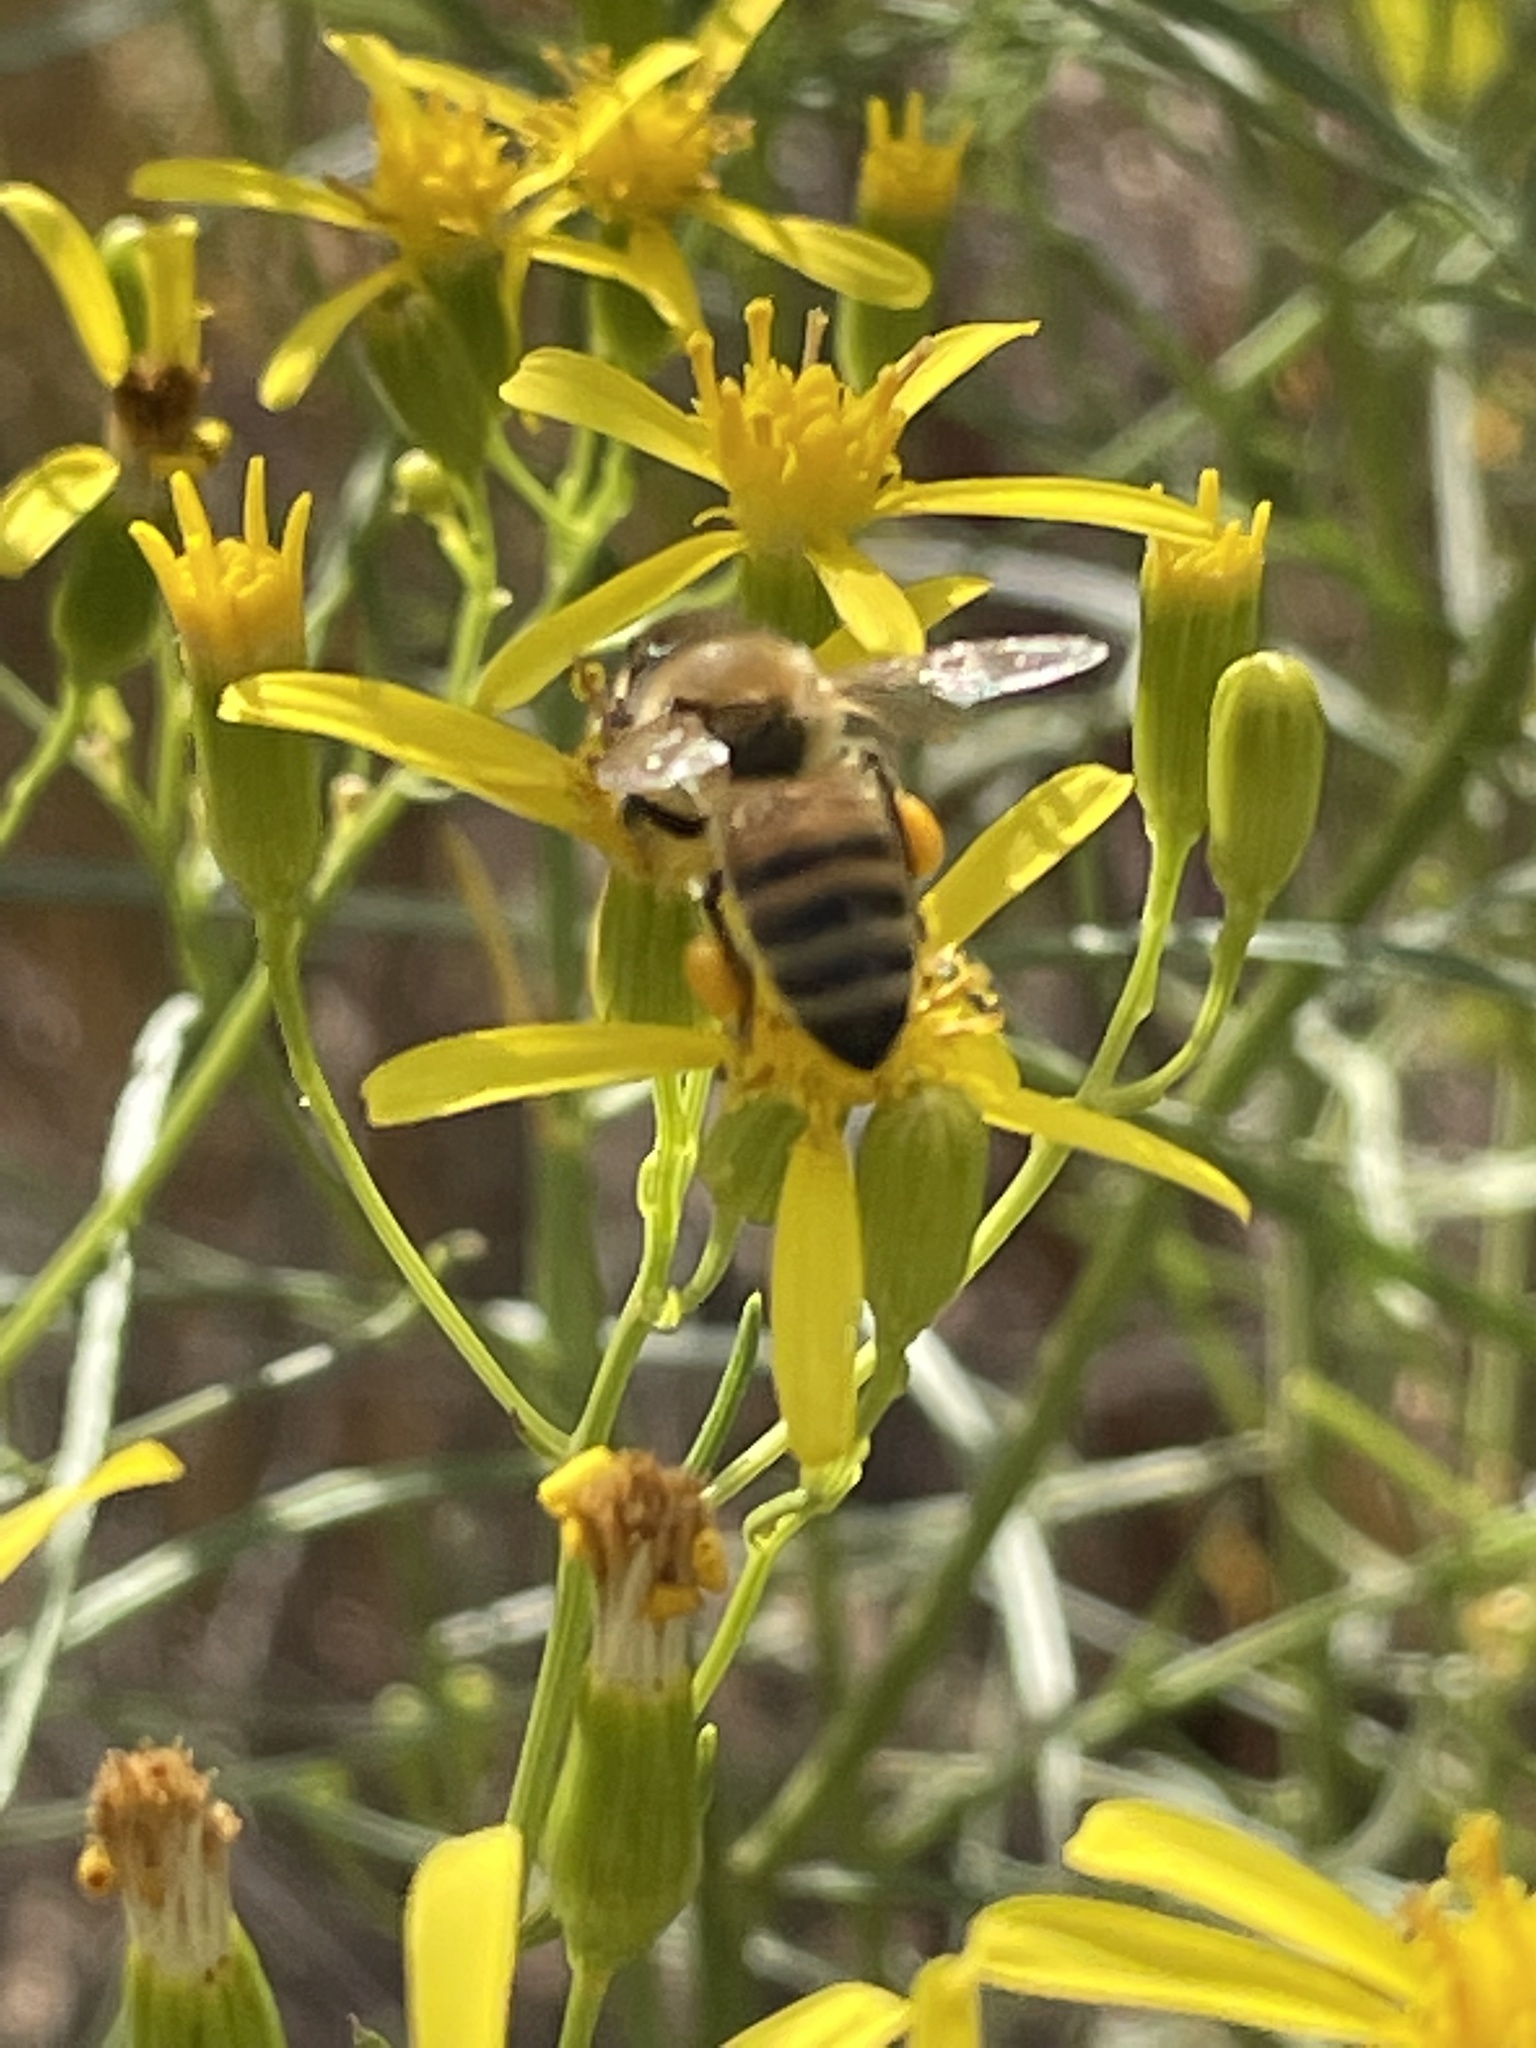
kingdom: Animalia
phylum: Arthropoda
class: Insecta
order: Hymenoptera
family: Apidae
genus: Apis
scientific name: Apis mellifera
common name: Honey bee
